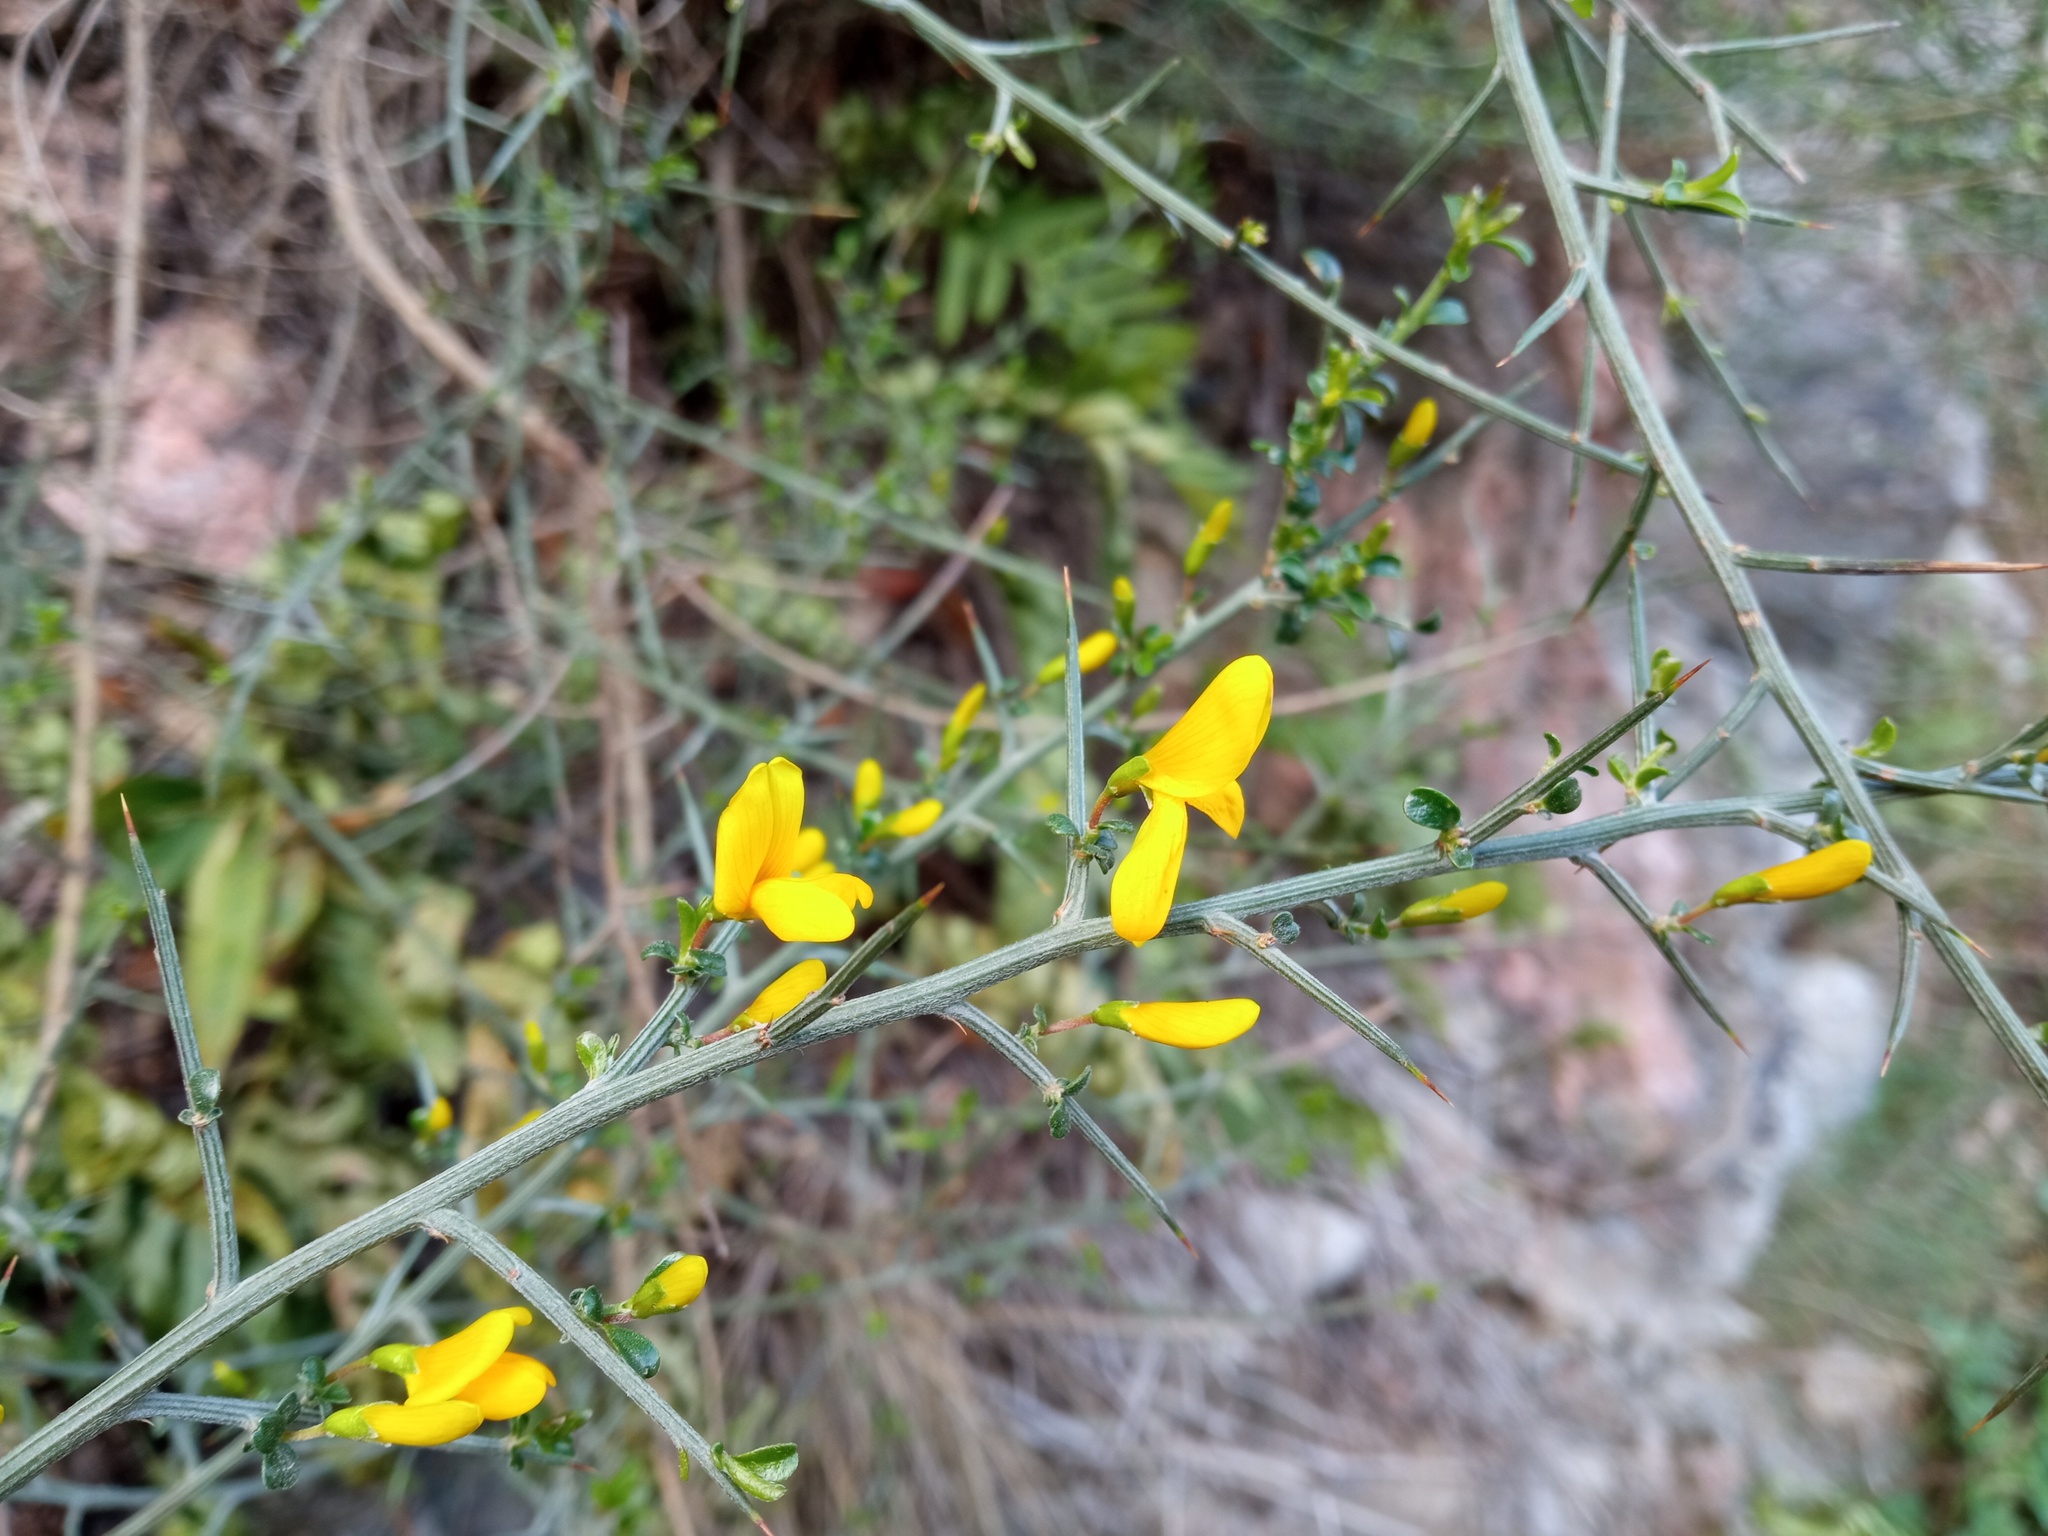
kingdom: Plantae
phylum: Tracheophyta
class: Magnoliopsida
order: Fabales
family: Fabaceae
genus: Genista
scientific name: Genista scorpius
